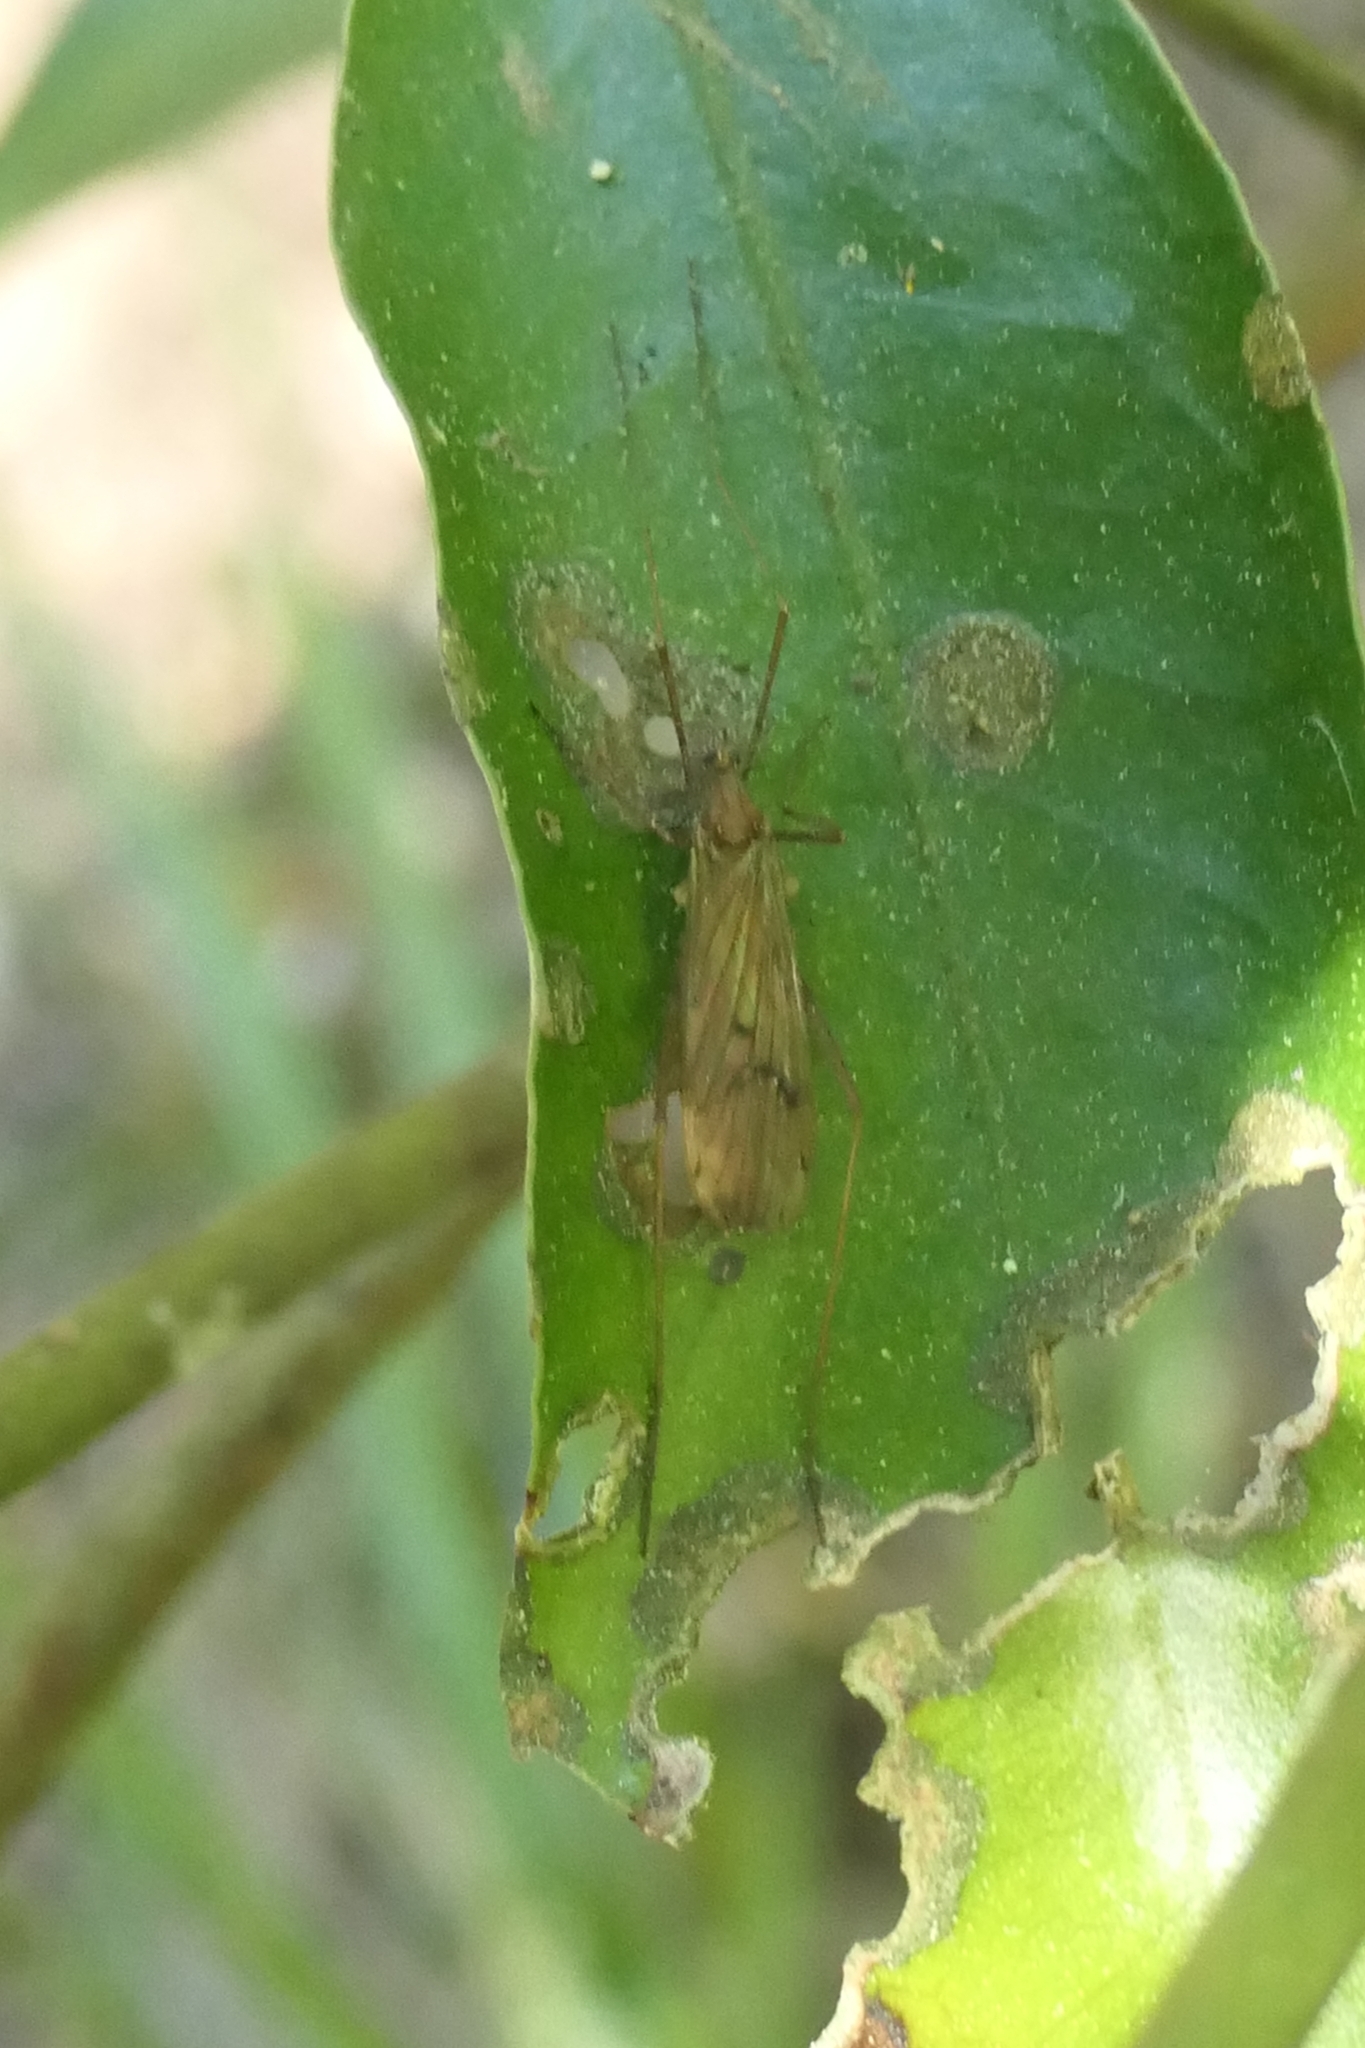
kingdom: Animalia
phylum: Arthropoda
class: Insecta
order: Diptera
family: Limoniidae
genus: Amphineurus
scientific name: Amphineurus insulsus
